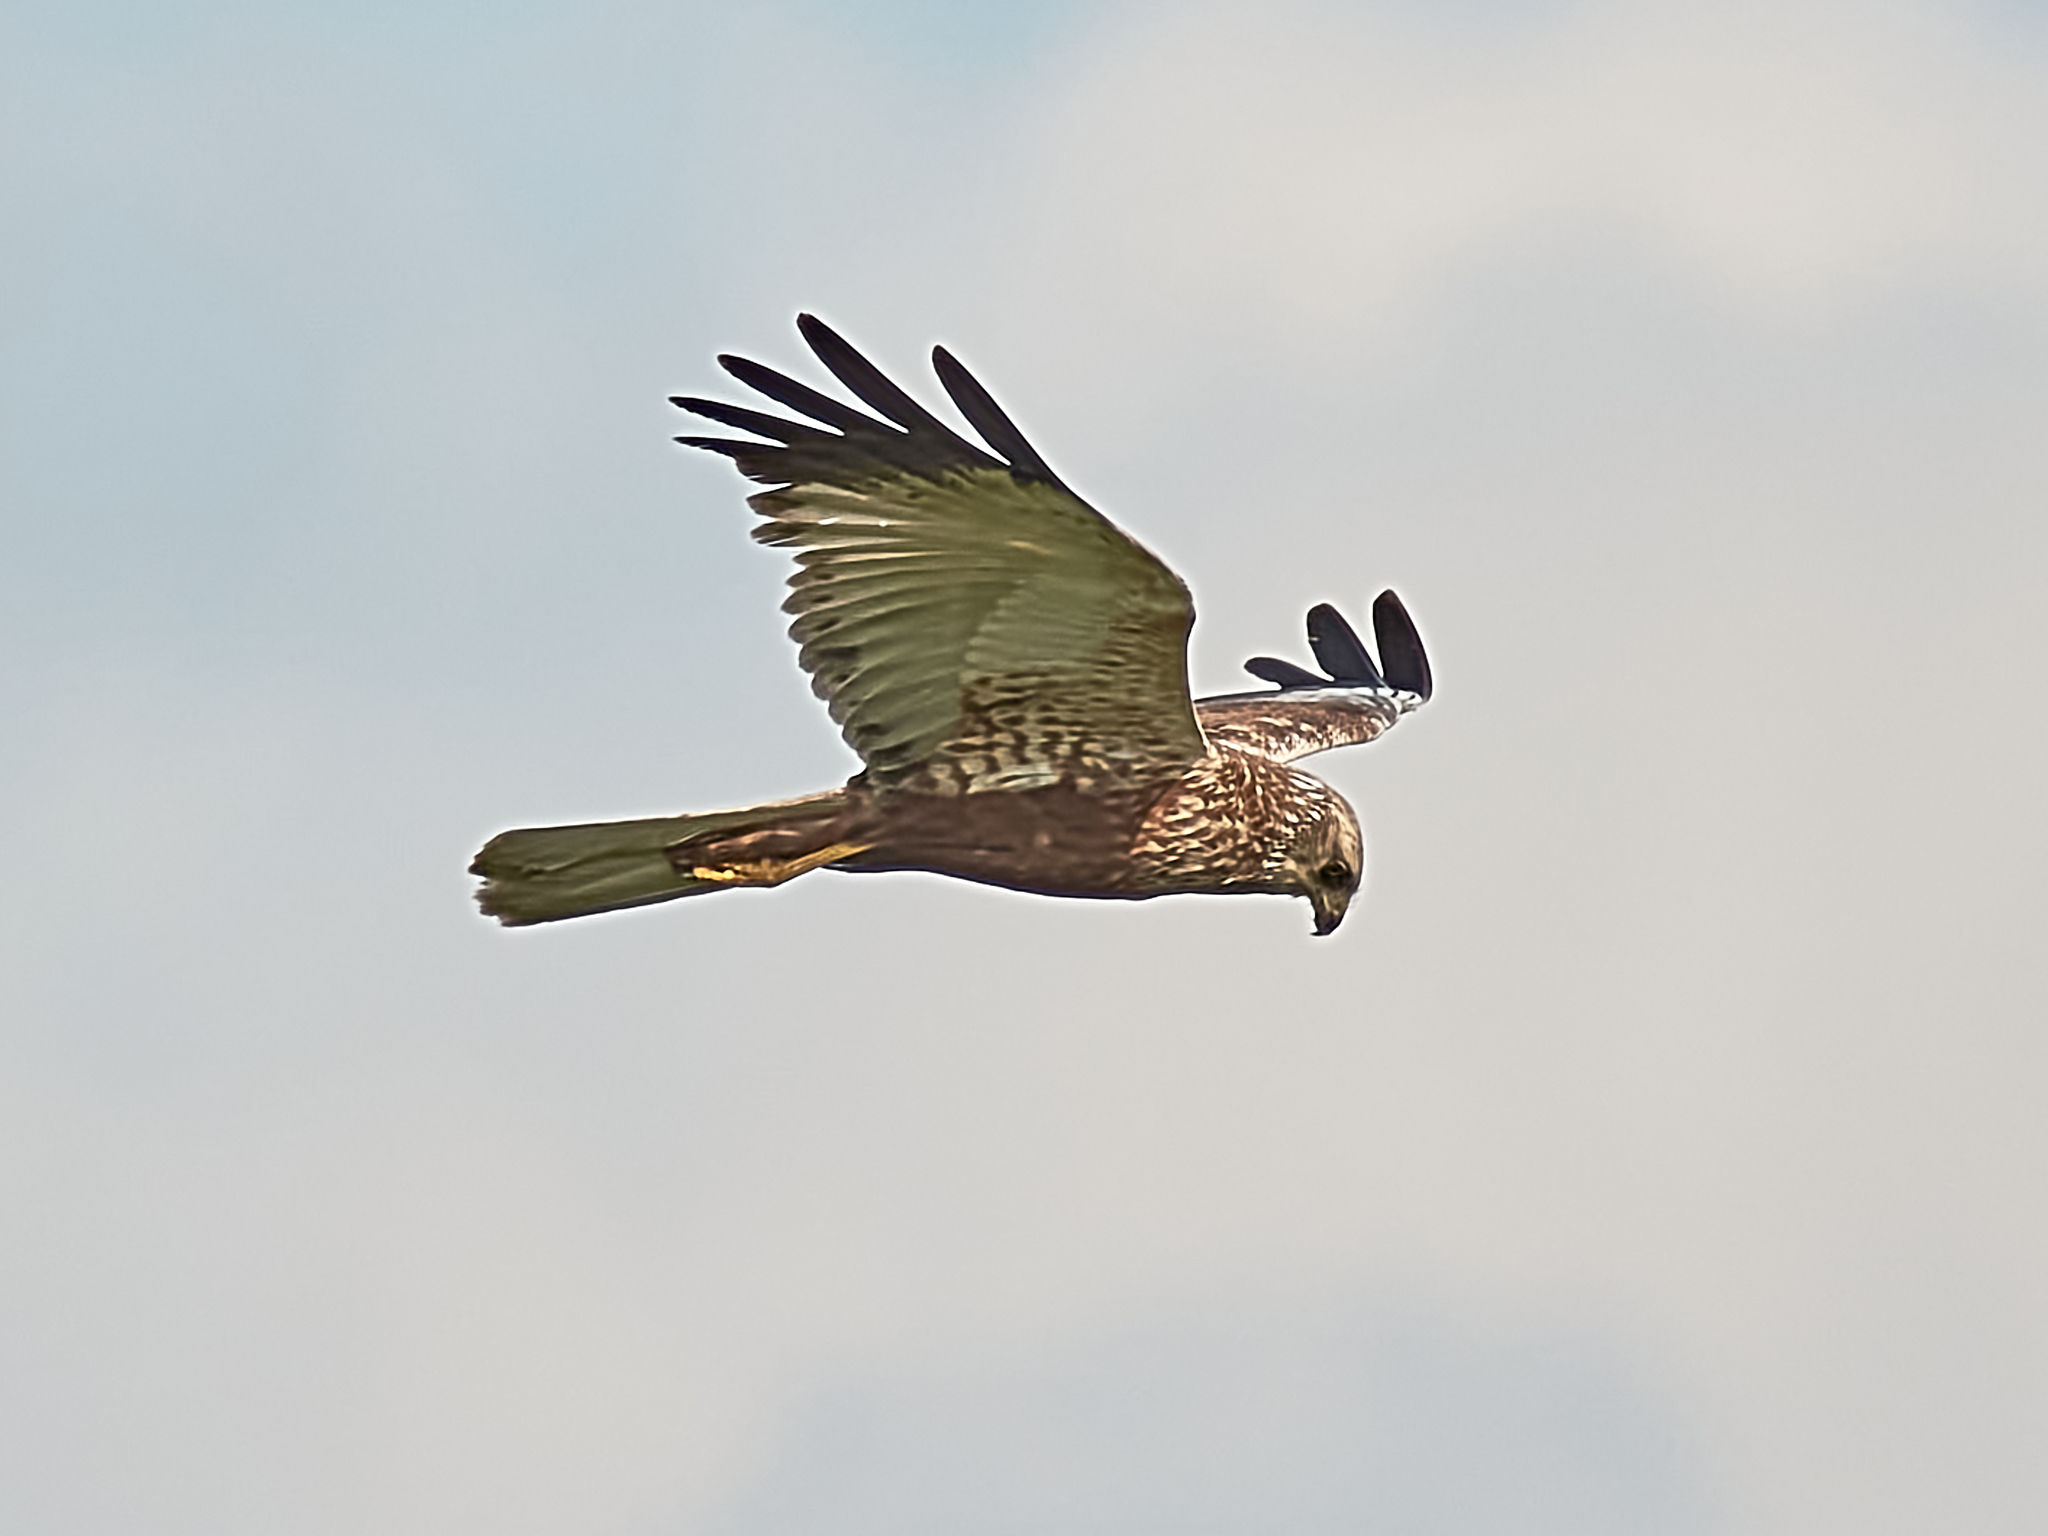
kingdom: Animalia
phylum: Chordata
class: Aves
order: Accipitriformes
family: Accipitridae
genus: Circus
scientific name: Circus aeruginosus
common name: Western marsh harrier
